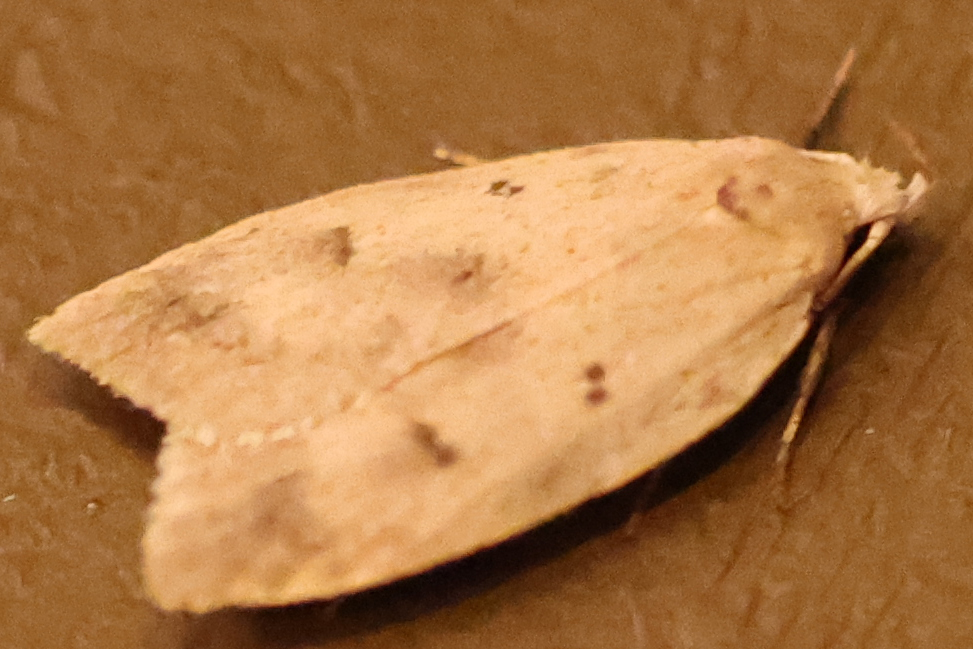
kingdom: Animalia
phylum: Arthropoda
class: Insecta
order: Lepidoptera
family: Peleopodidae
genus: Machimia
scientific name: Machimia tentoriferella
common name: Gold-striped leaftier moth
